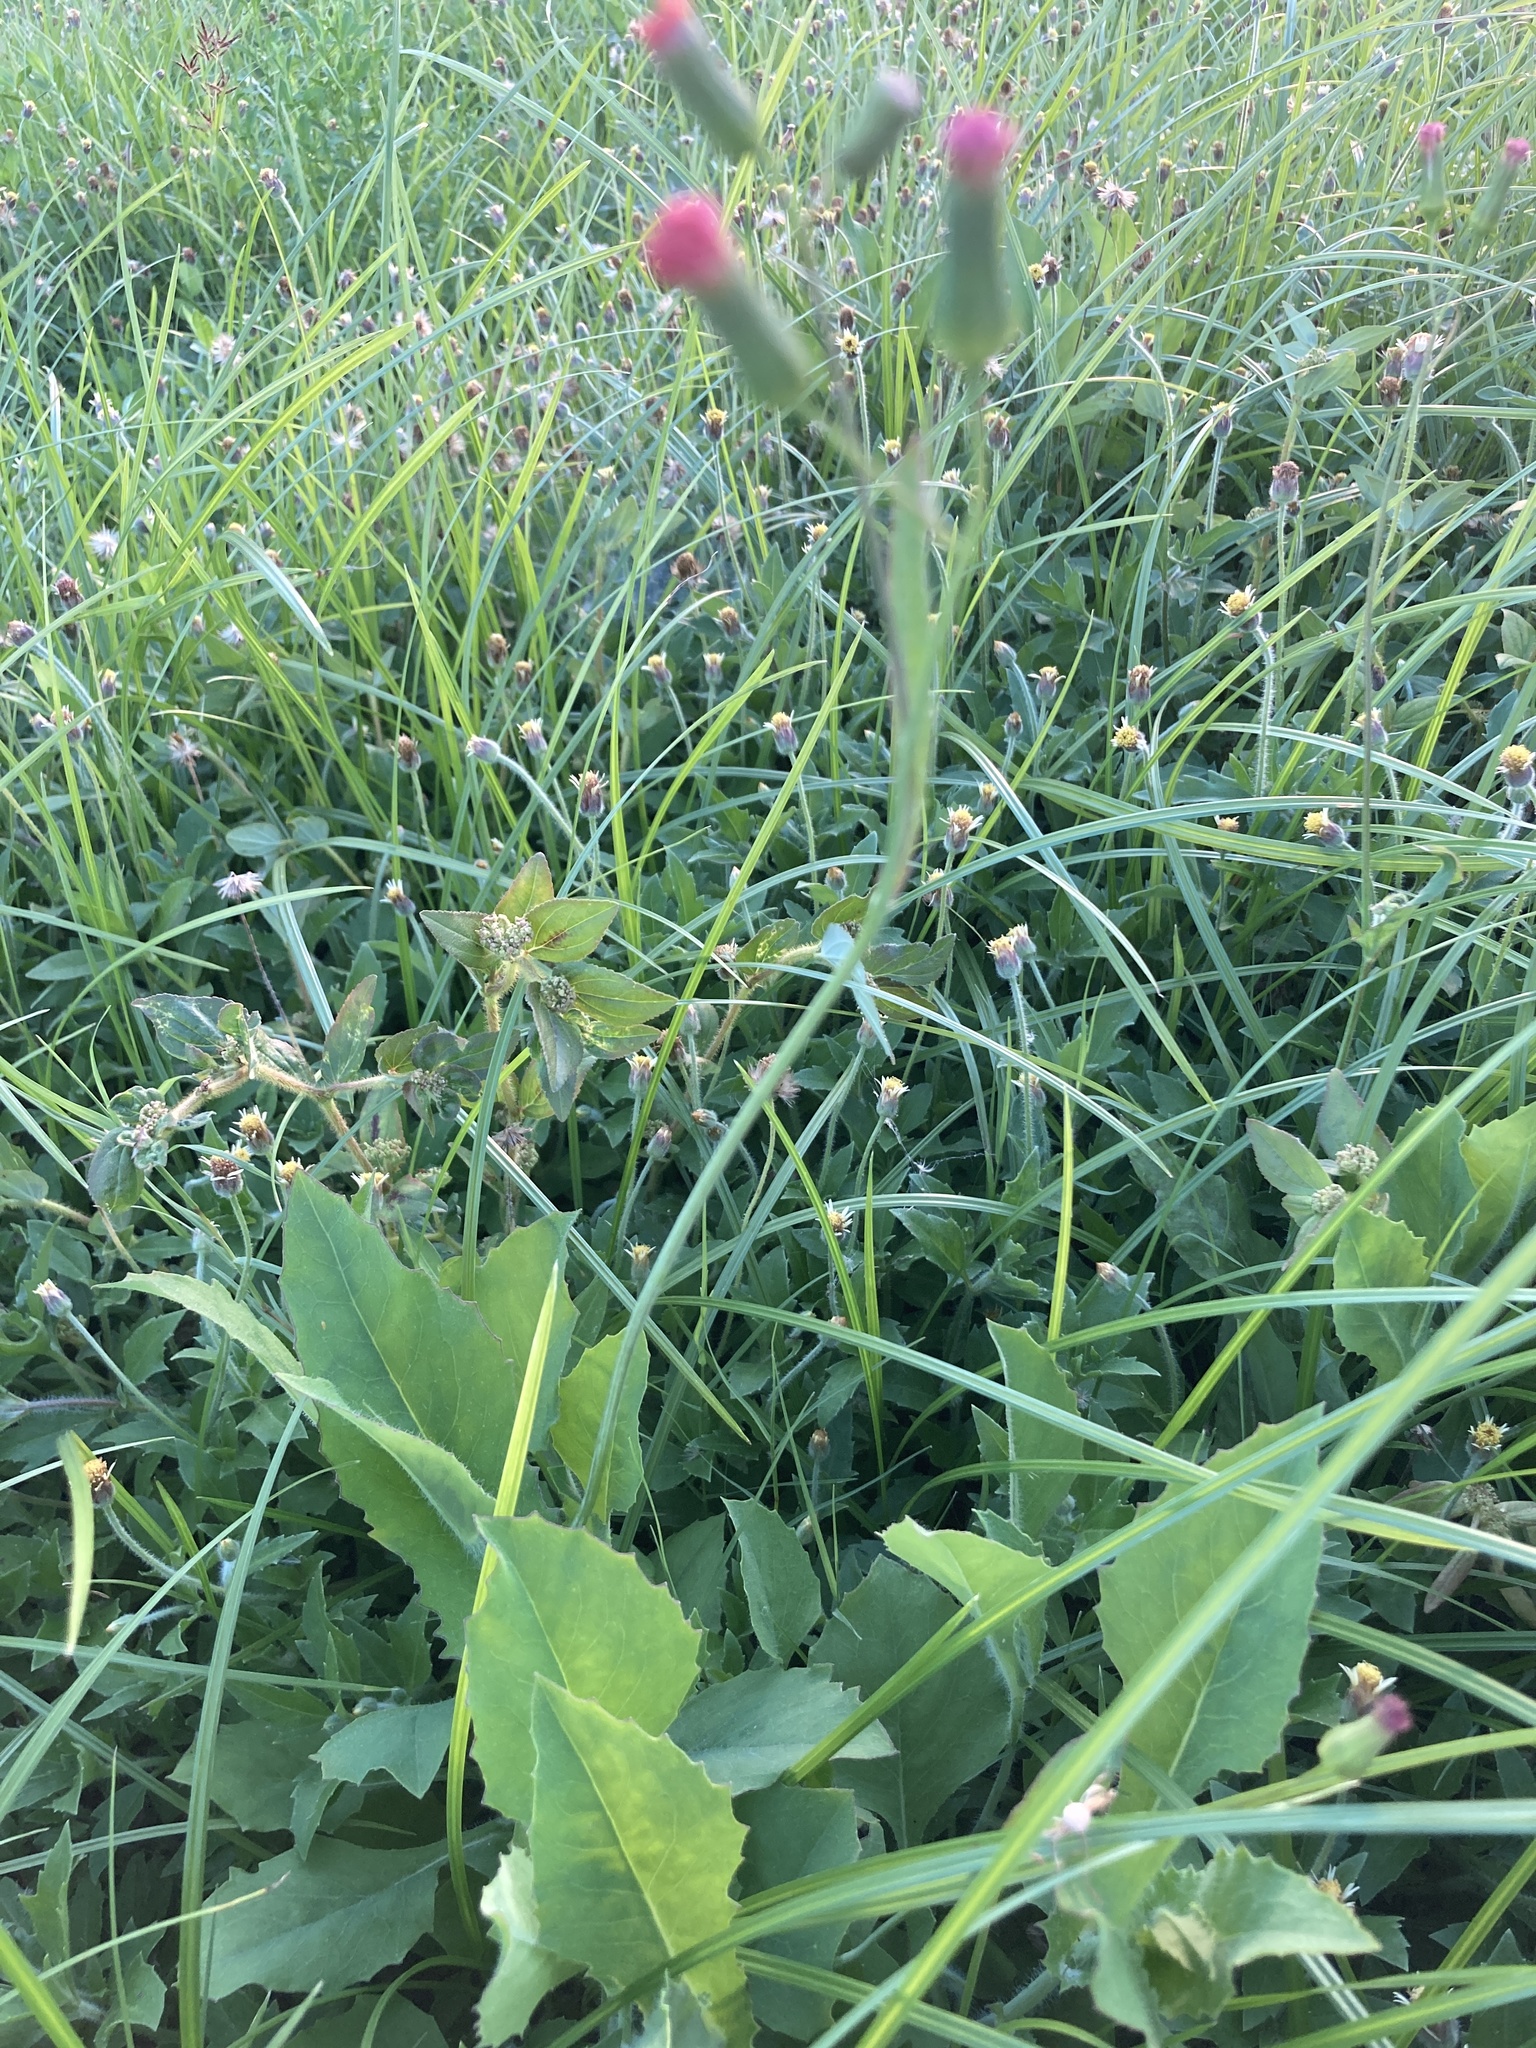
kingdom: Plantae
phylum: Tracheophyta
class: Magnoliopsida
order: Asterales
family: Asteraceae
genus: Emilia
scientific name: Emilia javanica
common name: Tassel-flower
